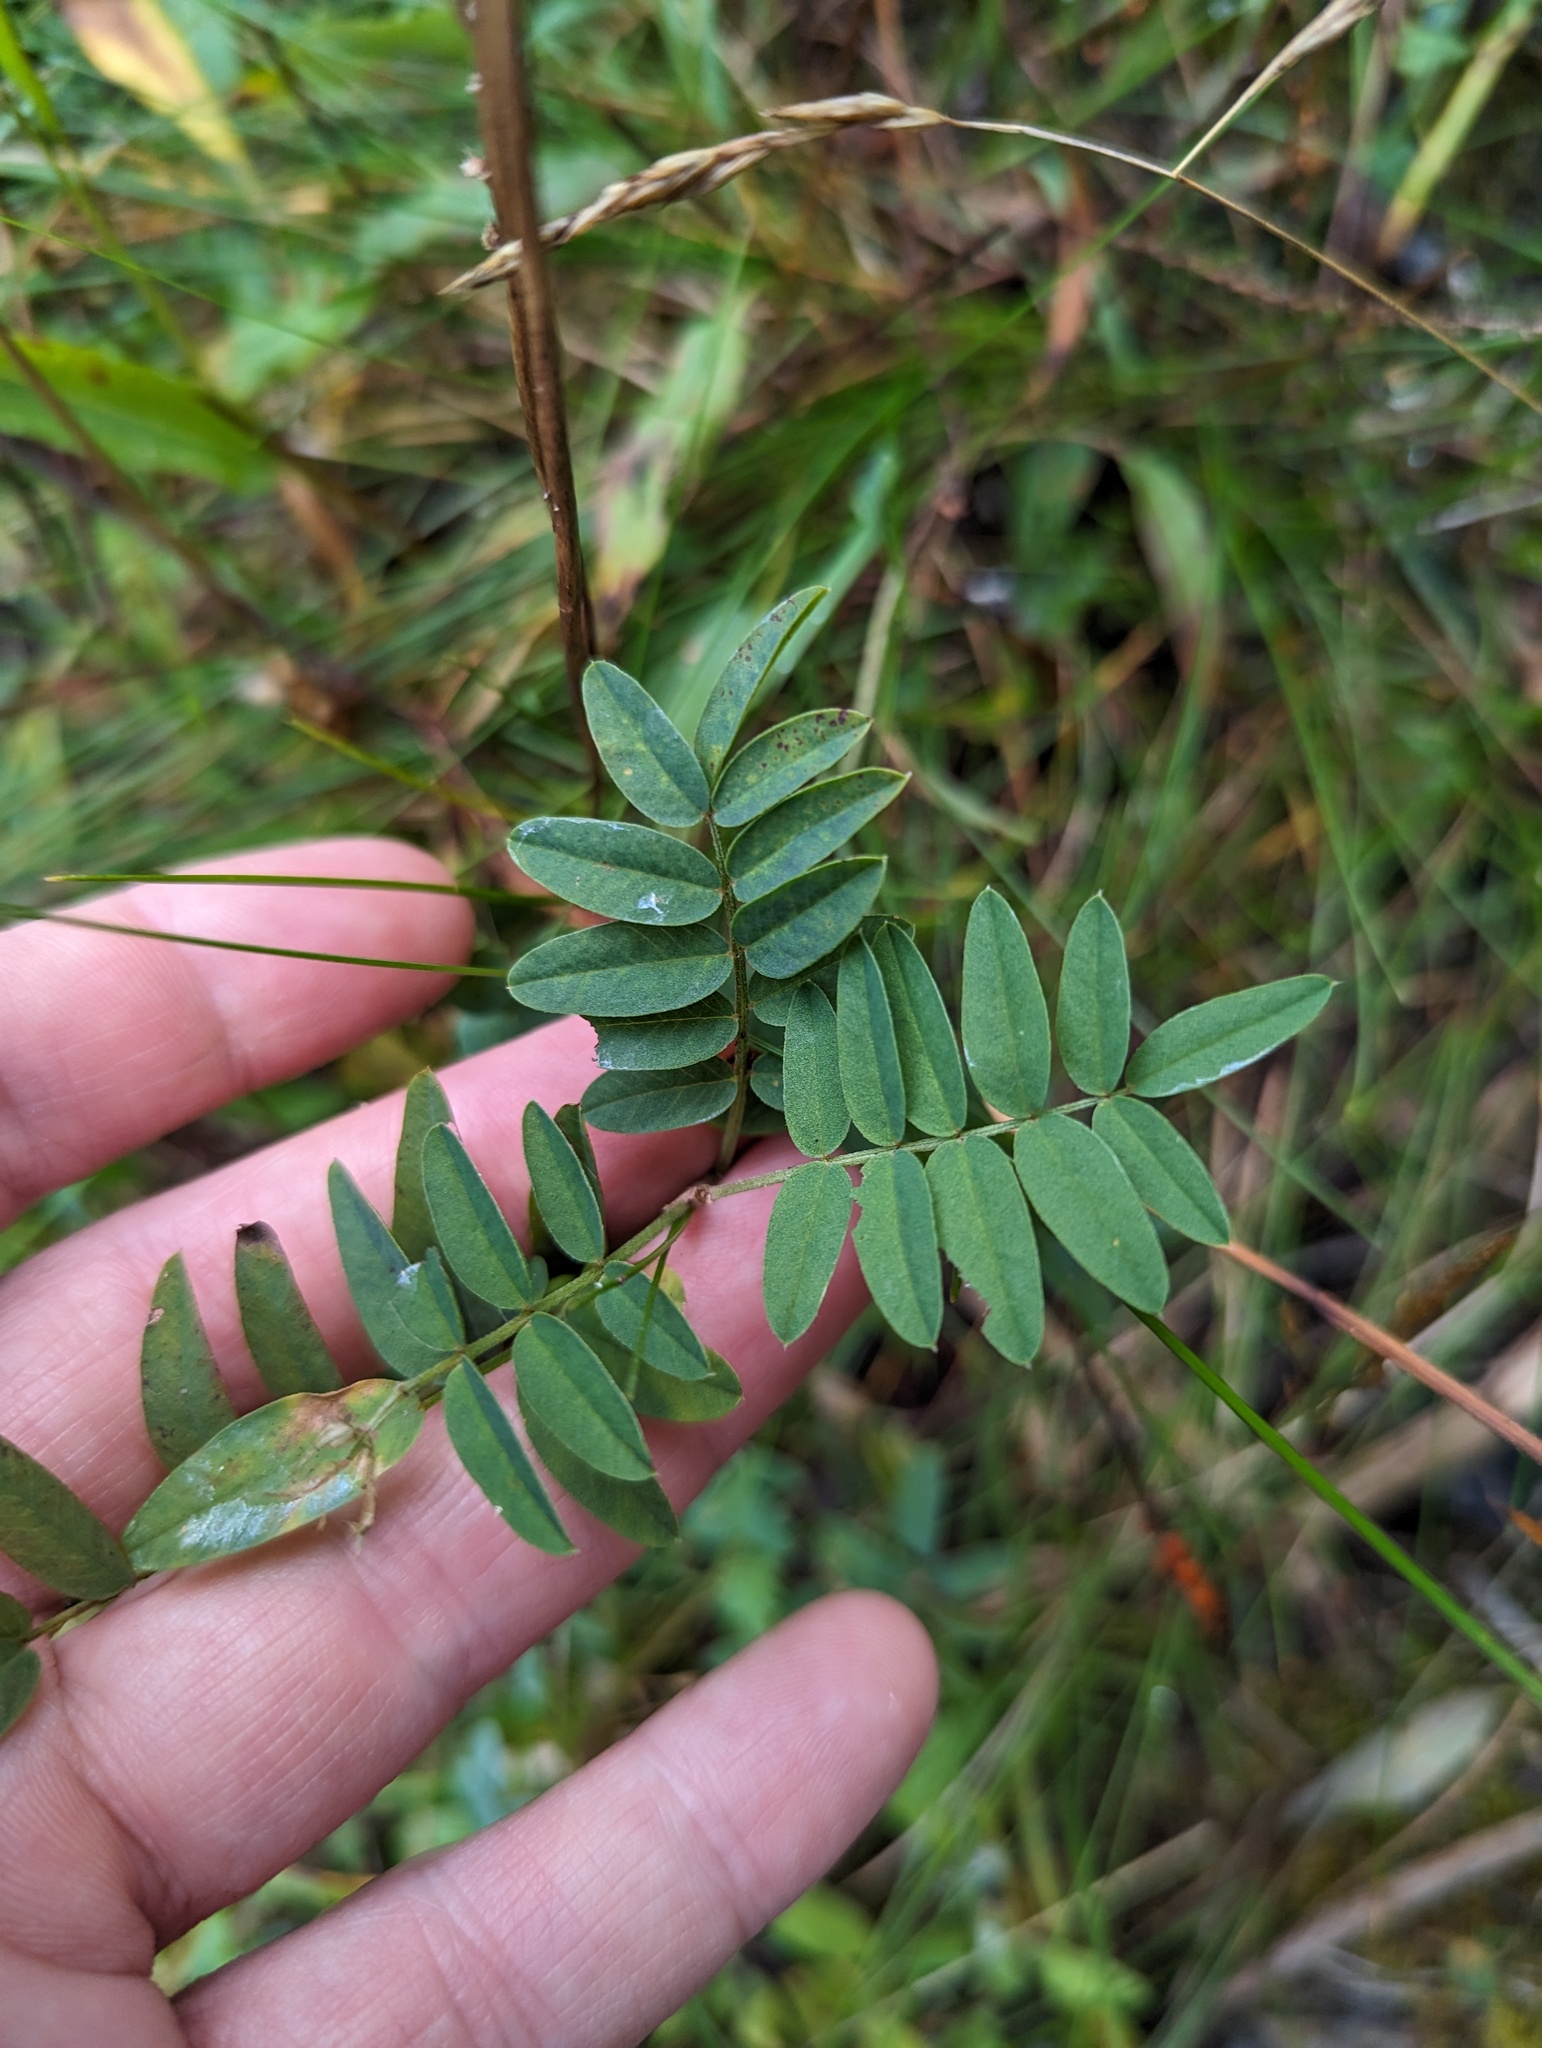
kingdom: Plantae
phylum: Tracheophyta
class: Magnoliopsida
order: Fabales
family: Fabaceae
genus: Hedysarum
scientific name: Hedysarum alpinum
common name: Alpine sweet-vetch
